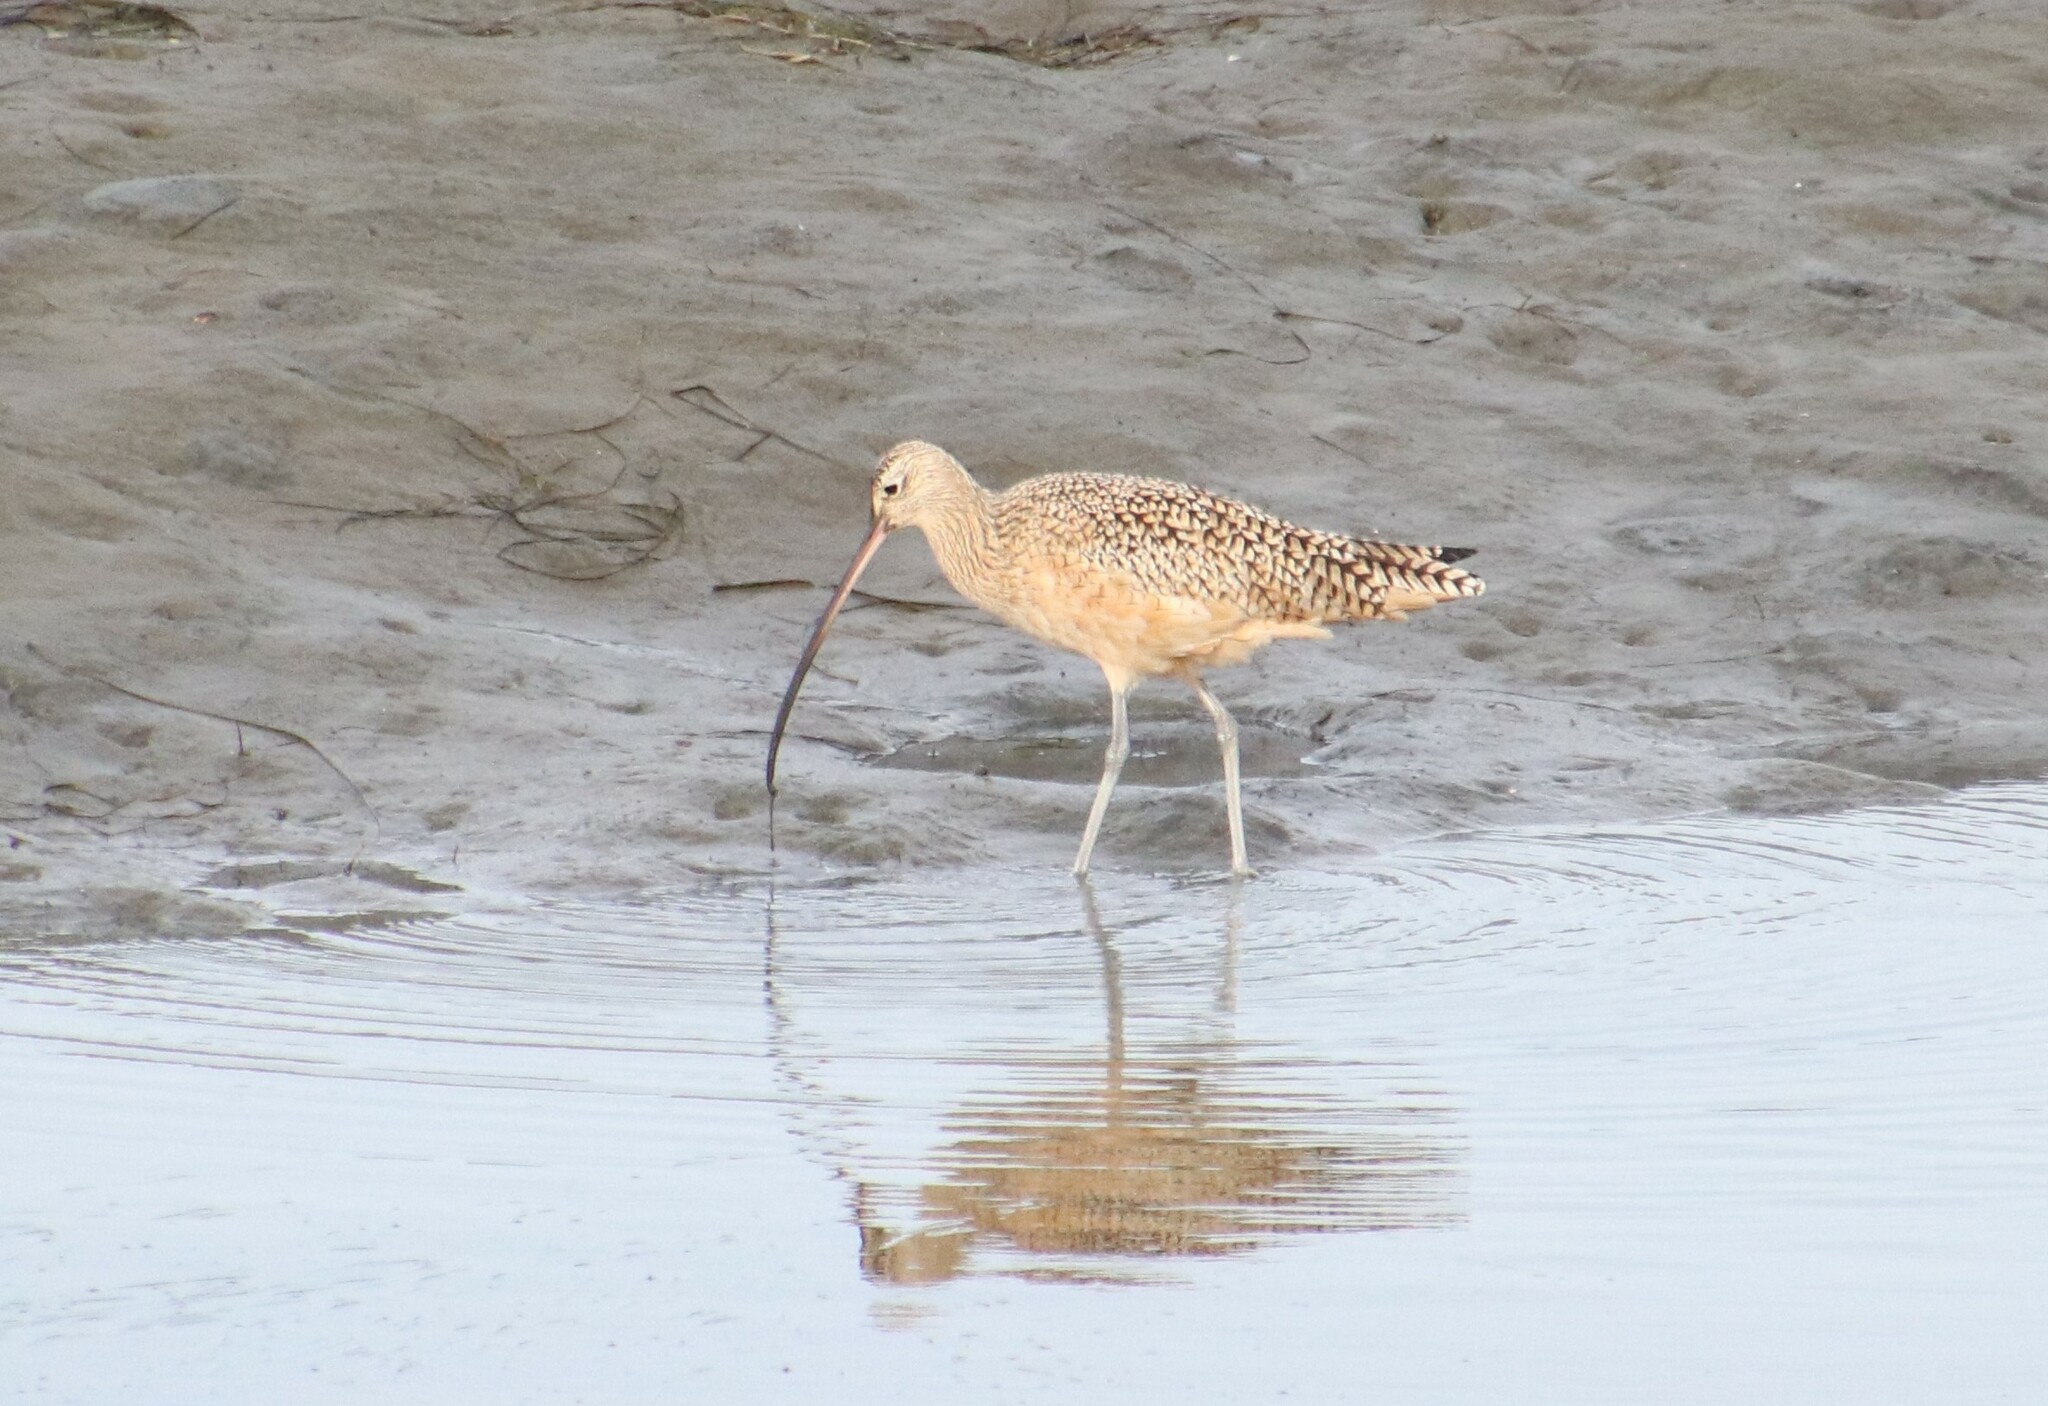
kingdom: Animalia
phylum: Chordata
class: Aves
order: Charadriiformes
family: Scolopacidae
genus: Numenius
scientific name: Numenius americanus
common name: Long-billed curlew
